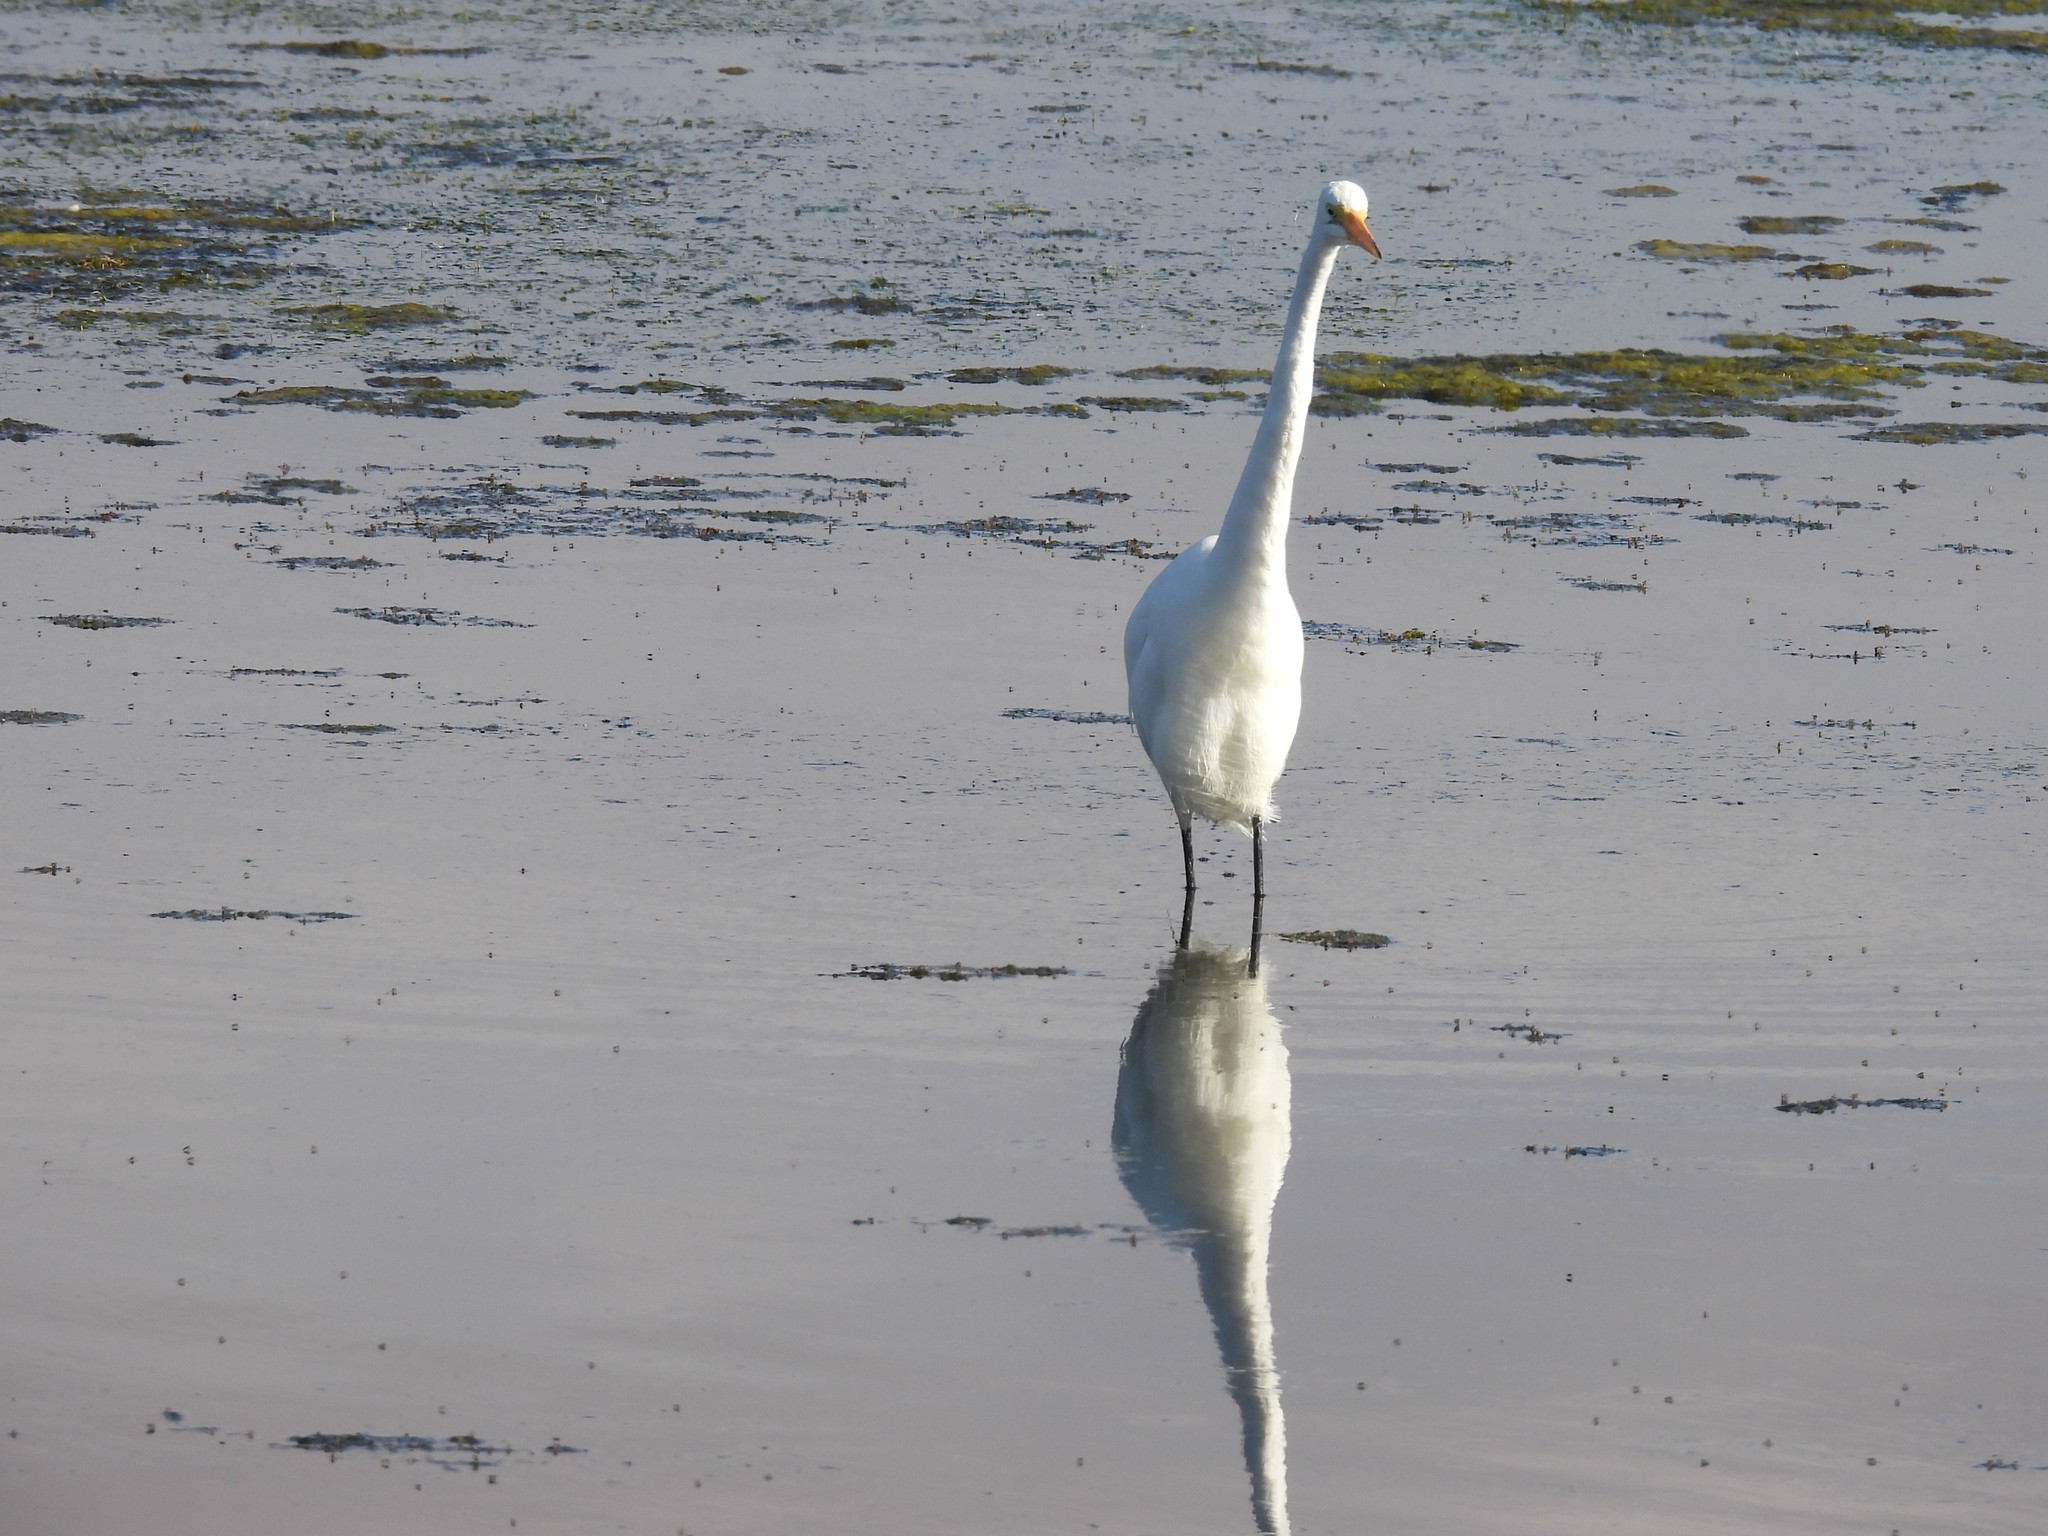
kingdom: Animalia
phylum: Chordata
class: Aves
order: Pelecaniformes
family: Ardeidae
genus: Ardea
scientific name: Ardea alba
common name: Great egret
